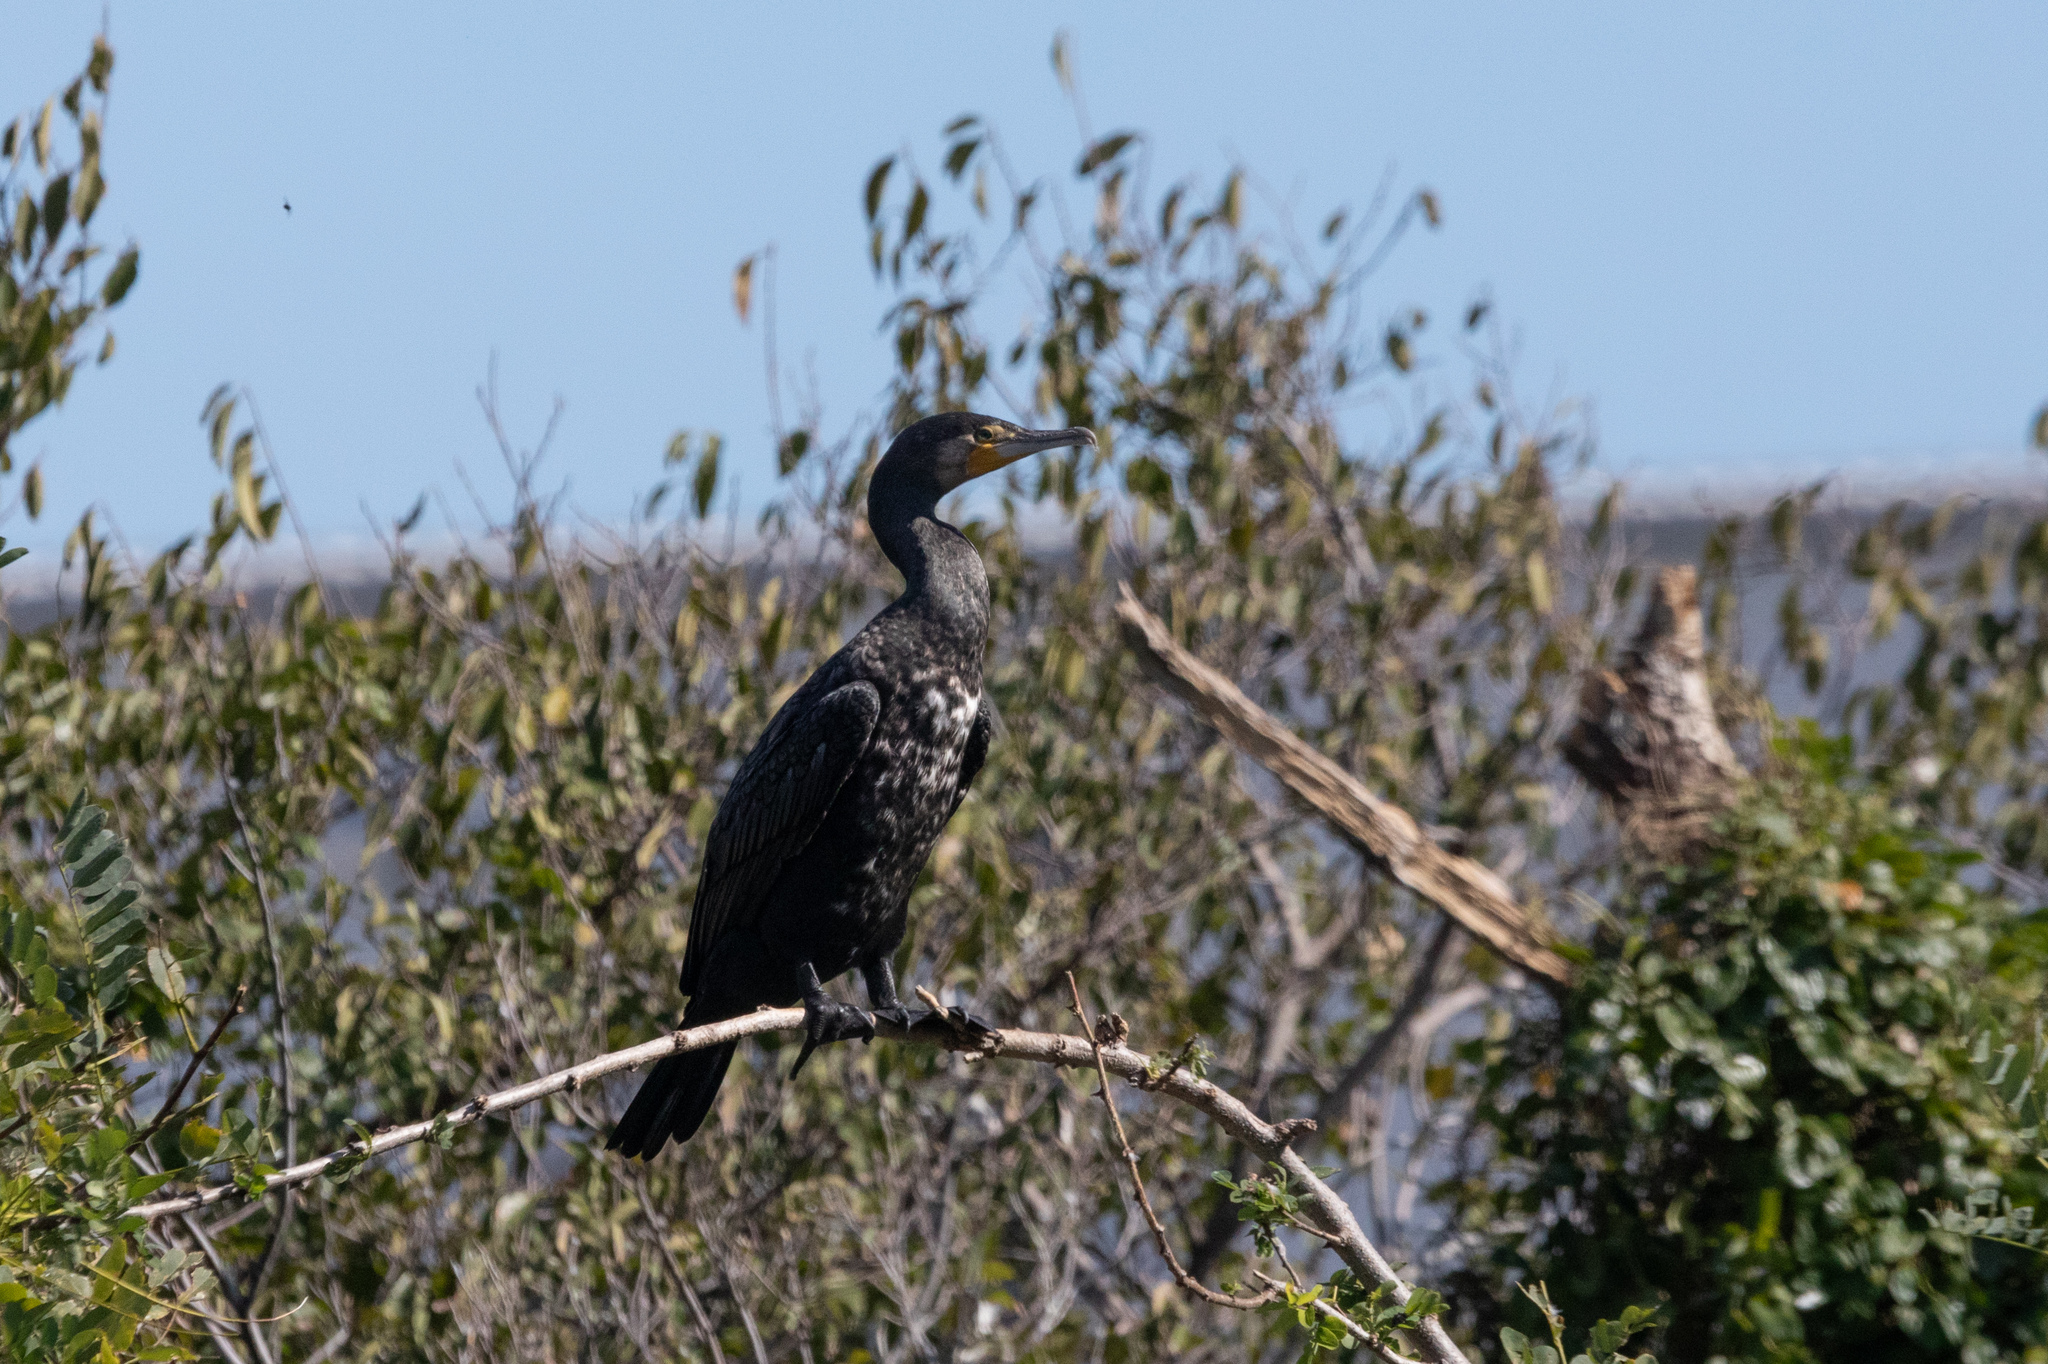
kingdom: Animalia
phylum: Chordata
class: Aves
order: Suliformes
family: Phalacrocoracidae
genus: Phalacrocorax
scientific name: Phalacrocorax carbo
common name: Great cormorant
